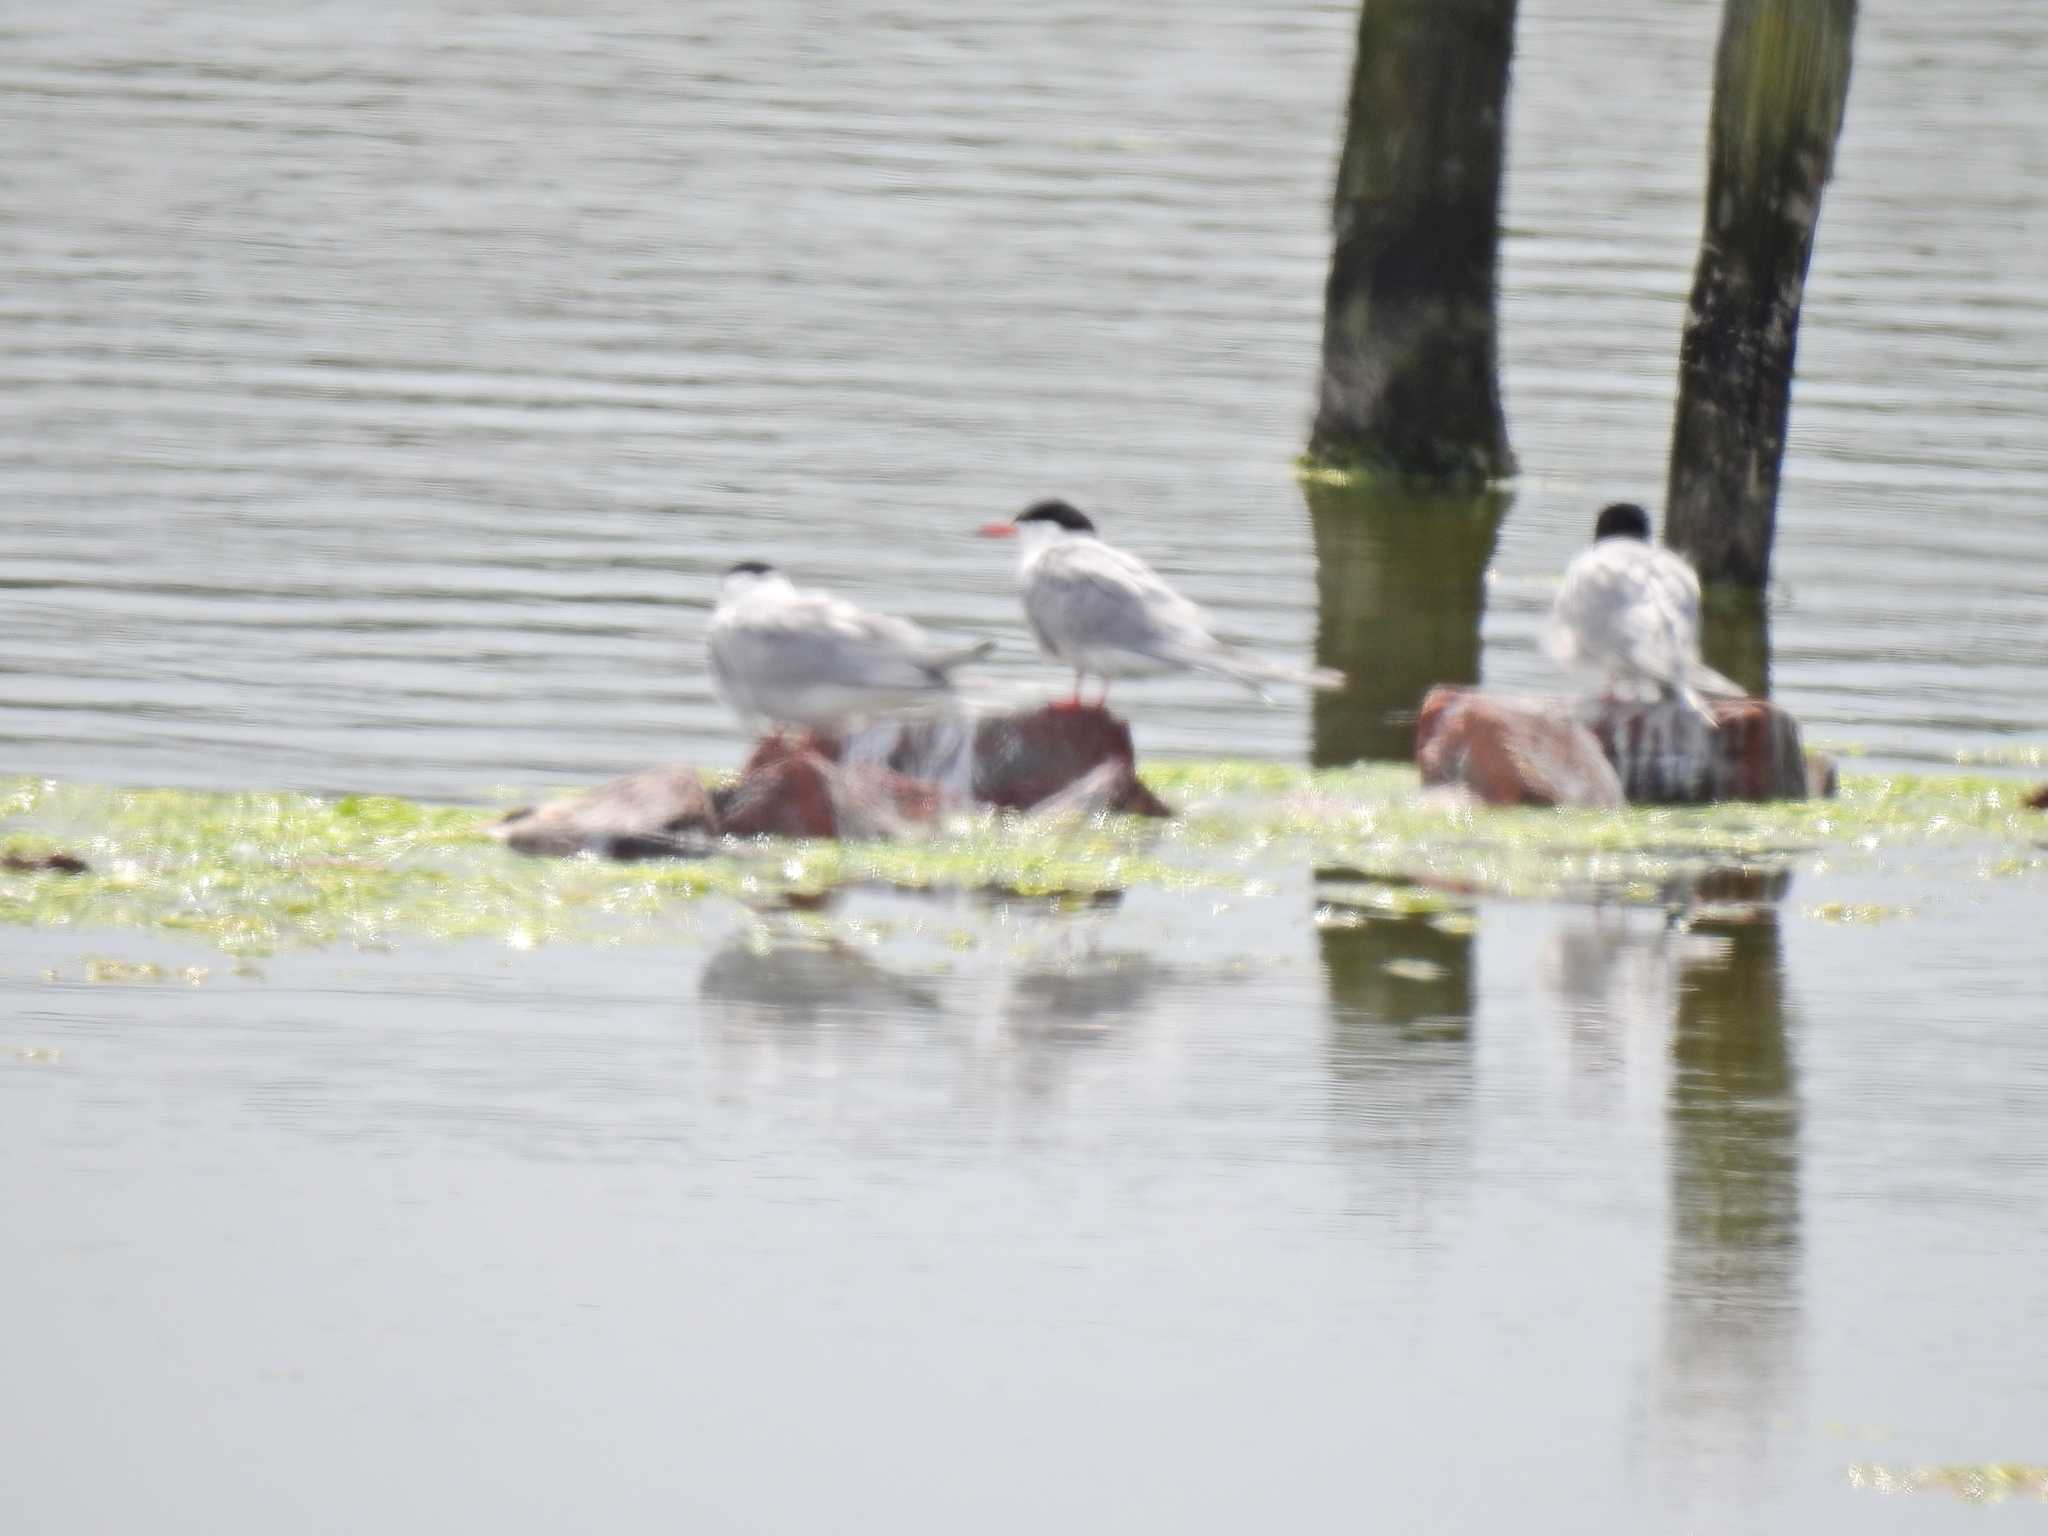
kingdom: Animalia
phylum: Chordata
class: Aves
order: Charadriiformes
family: Laridae
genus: Sterna
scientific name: Sterna hirundo
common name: Common tern
